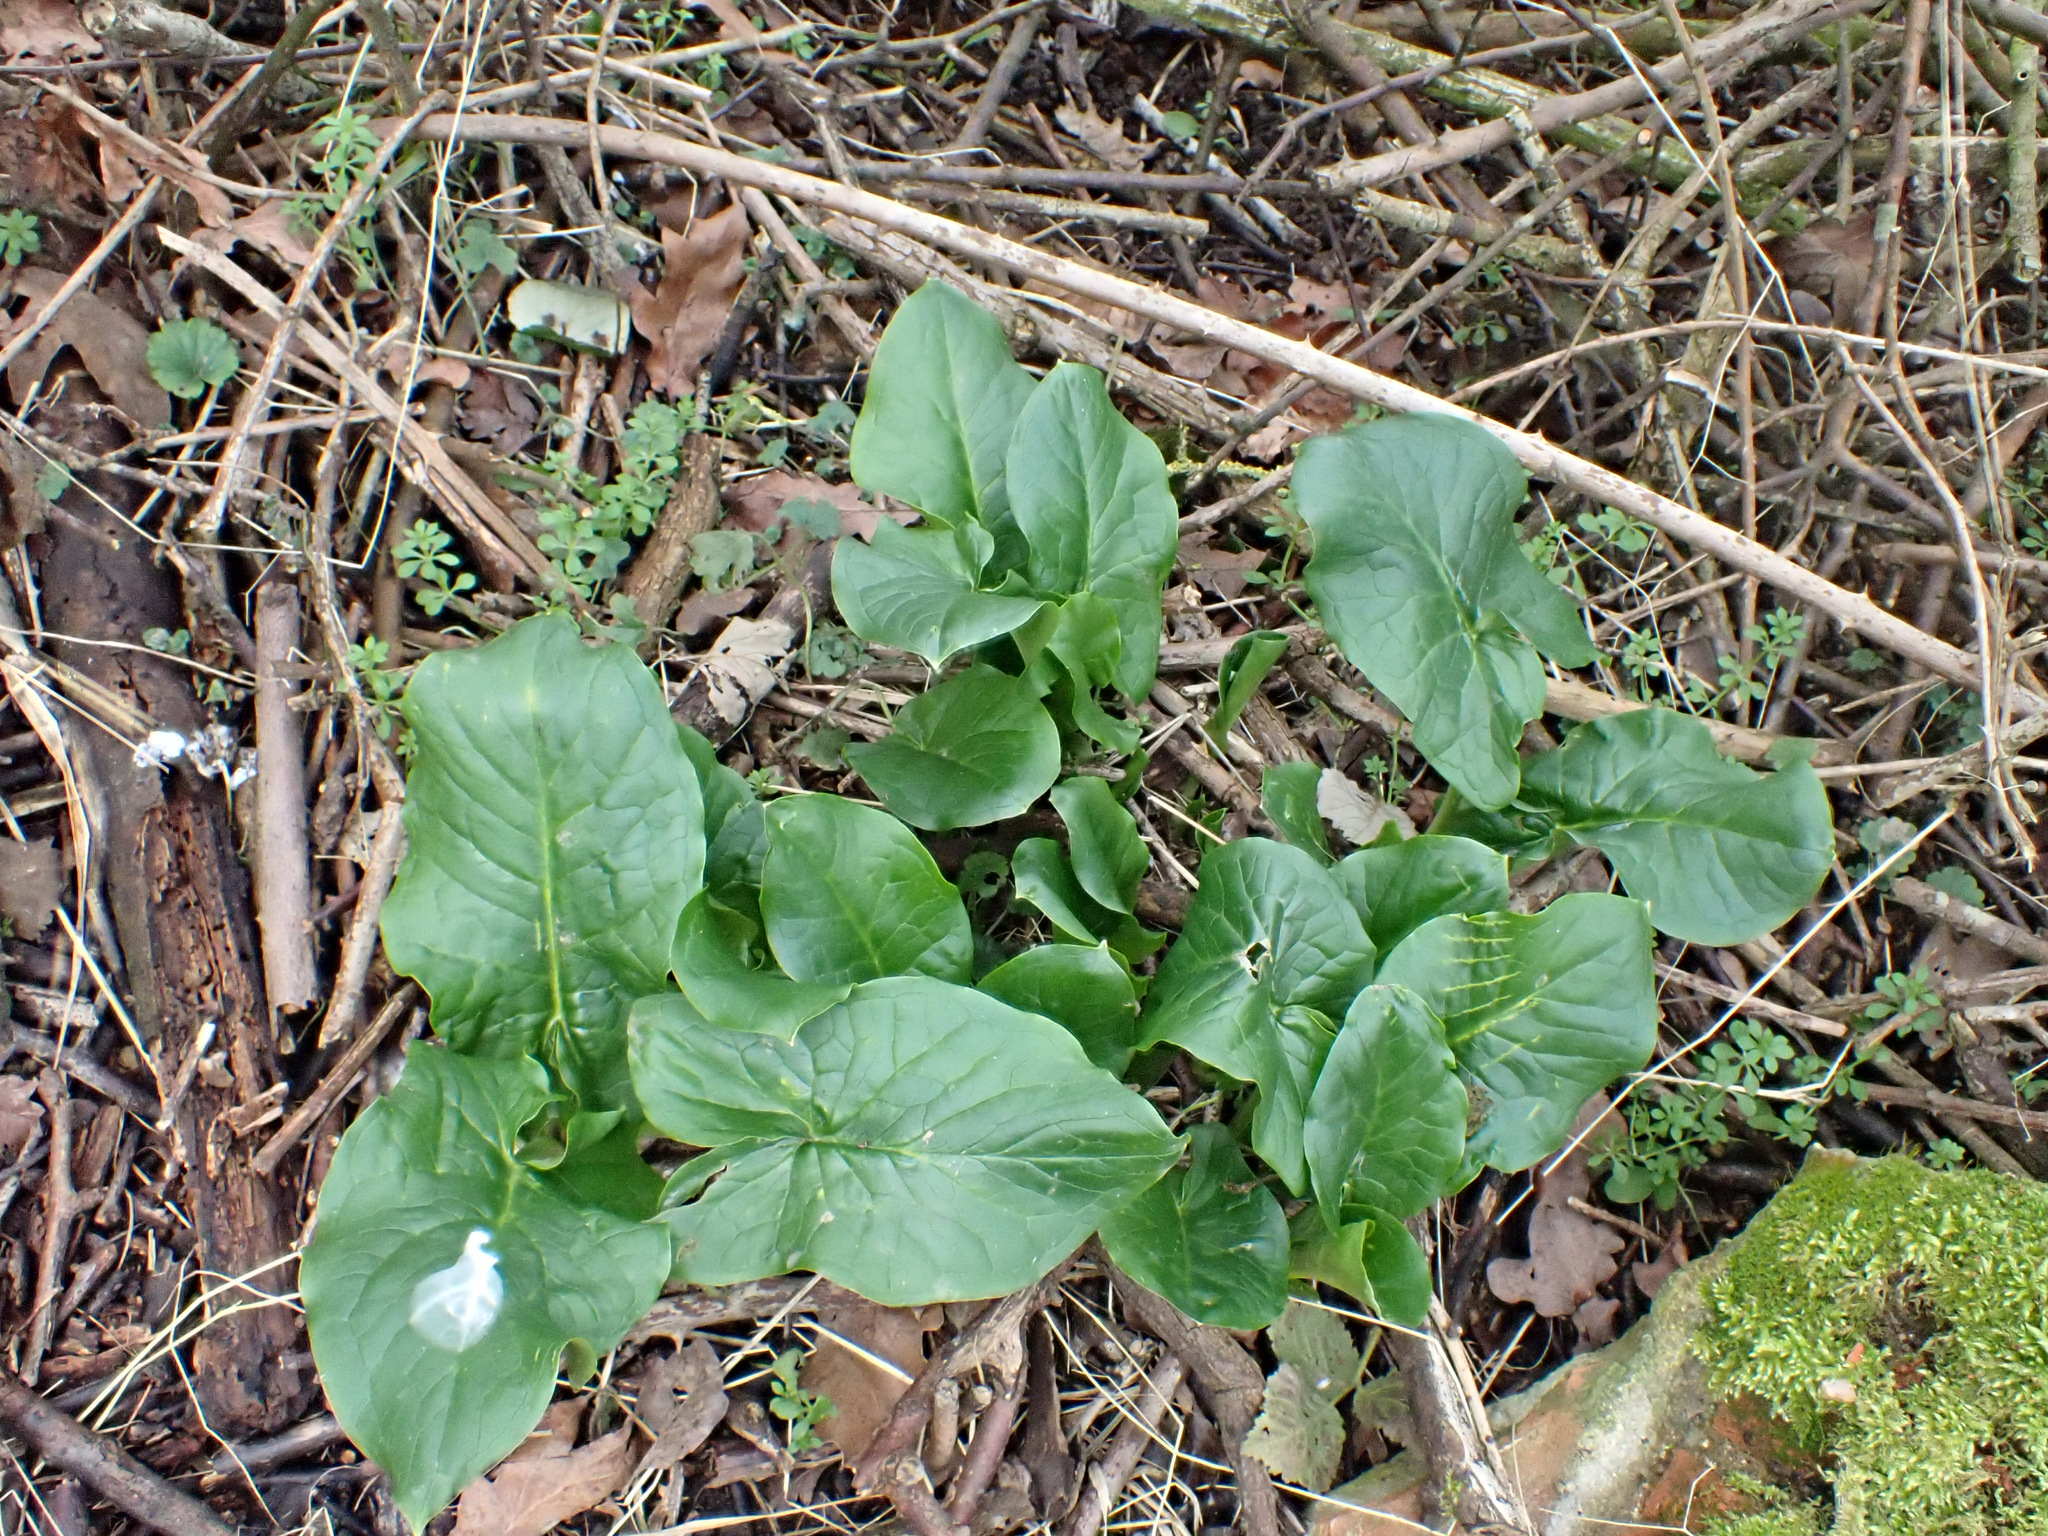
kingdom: Plantae
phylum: Tracheophyta
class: Liliopsida
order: Alismatales
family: Araceae
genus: Arum
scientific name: Arum maculatum
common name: Lords-and-ladies
